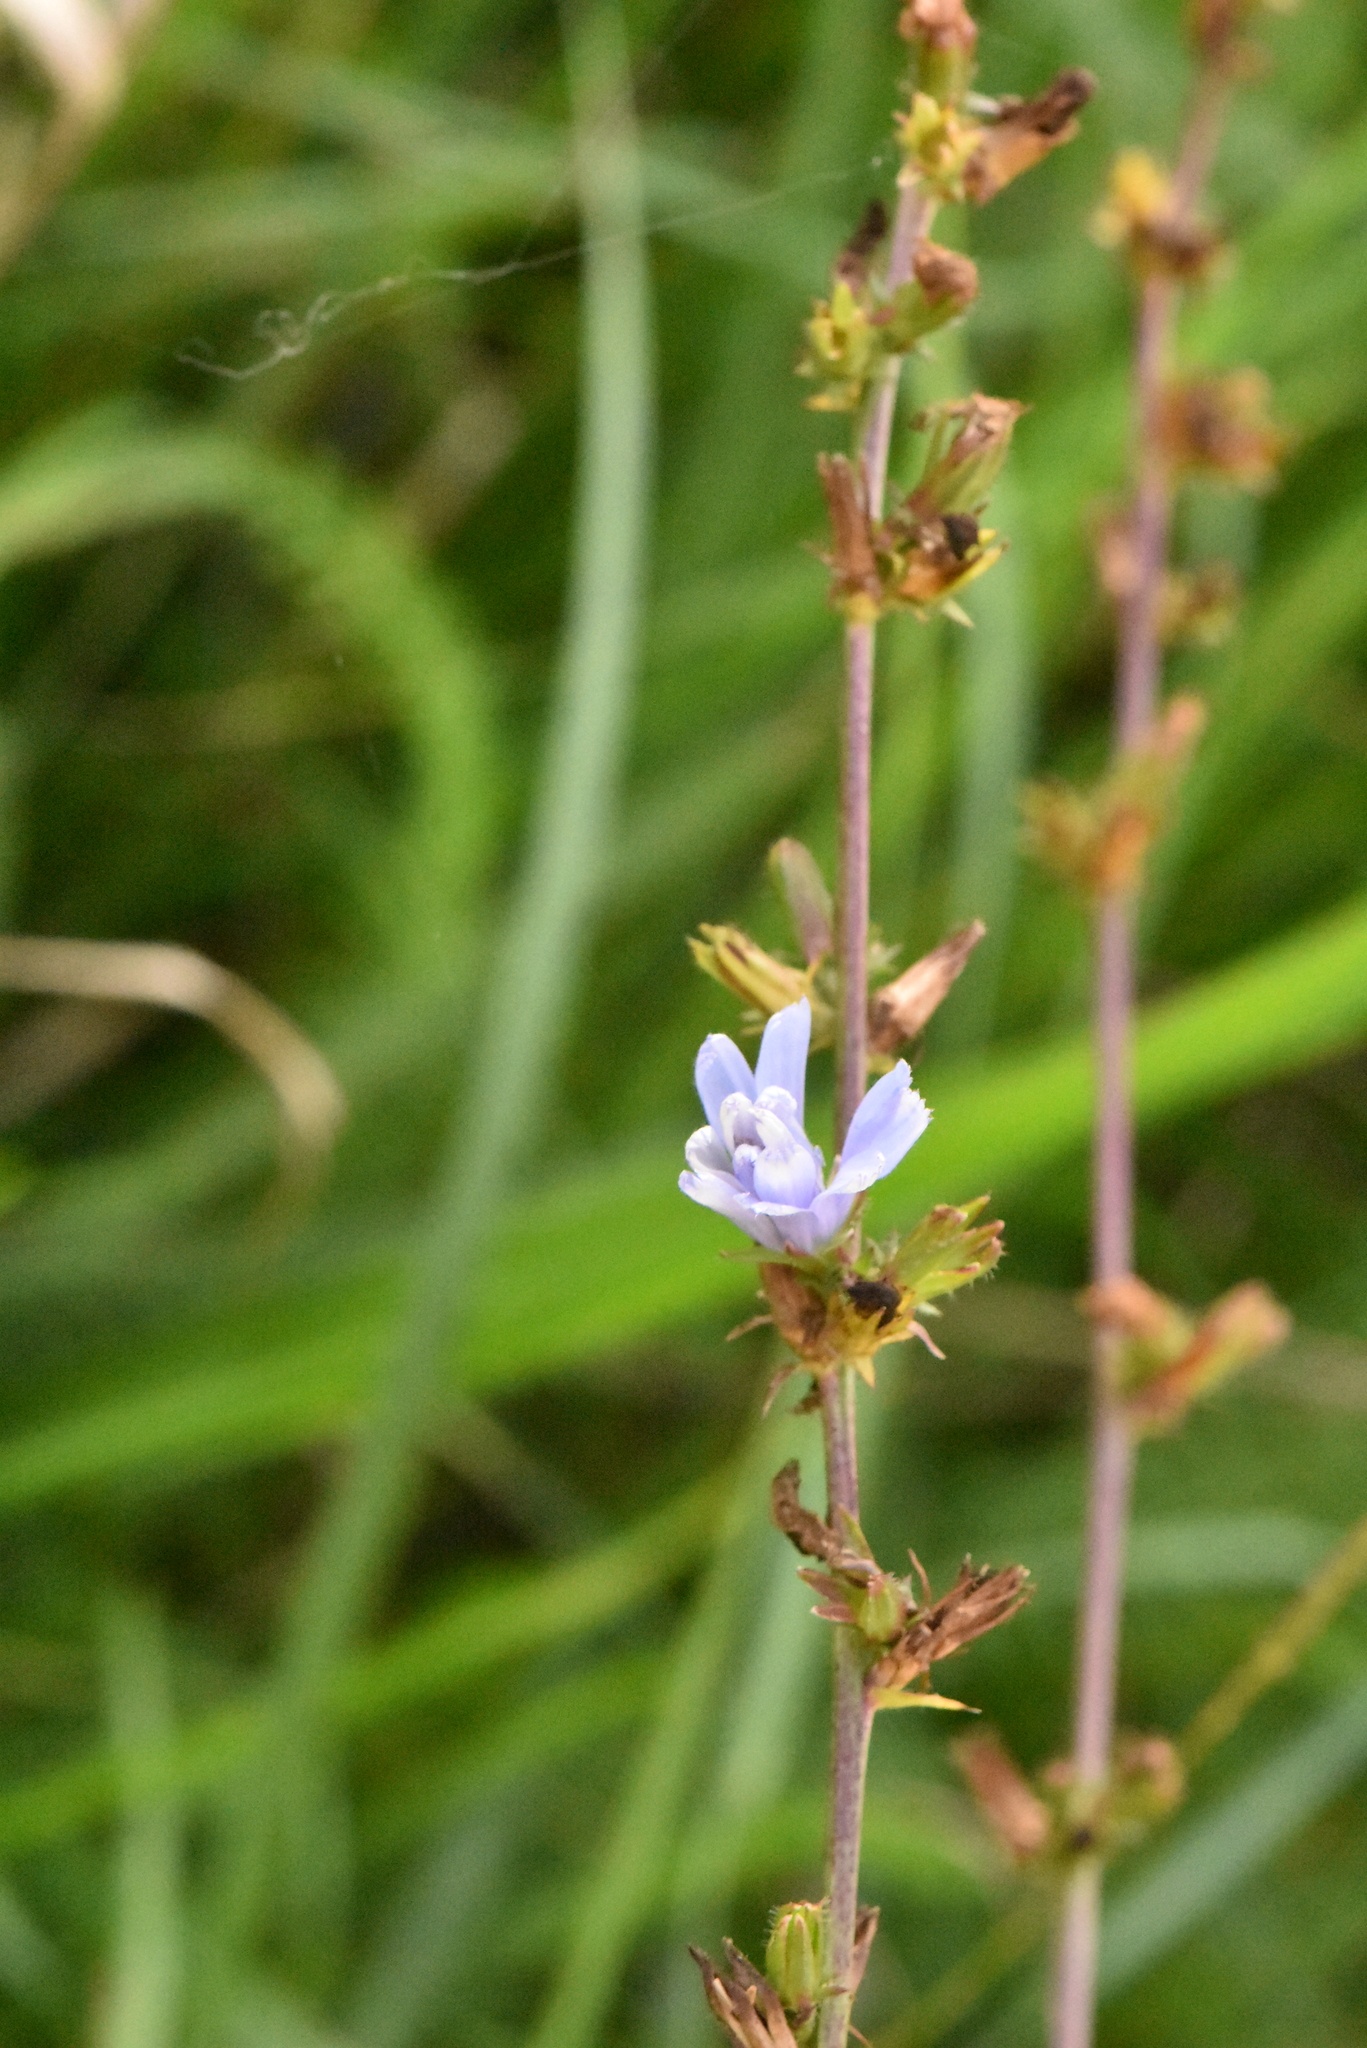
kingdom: Plantae
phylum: Tracheophyta
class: Magnoliopsida
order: Asterales
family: Asteraceae
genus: Cichorium
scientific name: Cichorium intybus
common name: Chicory
